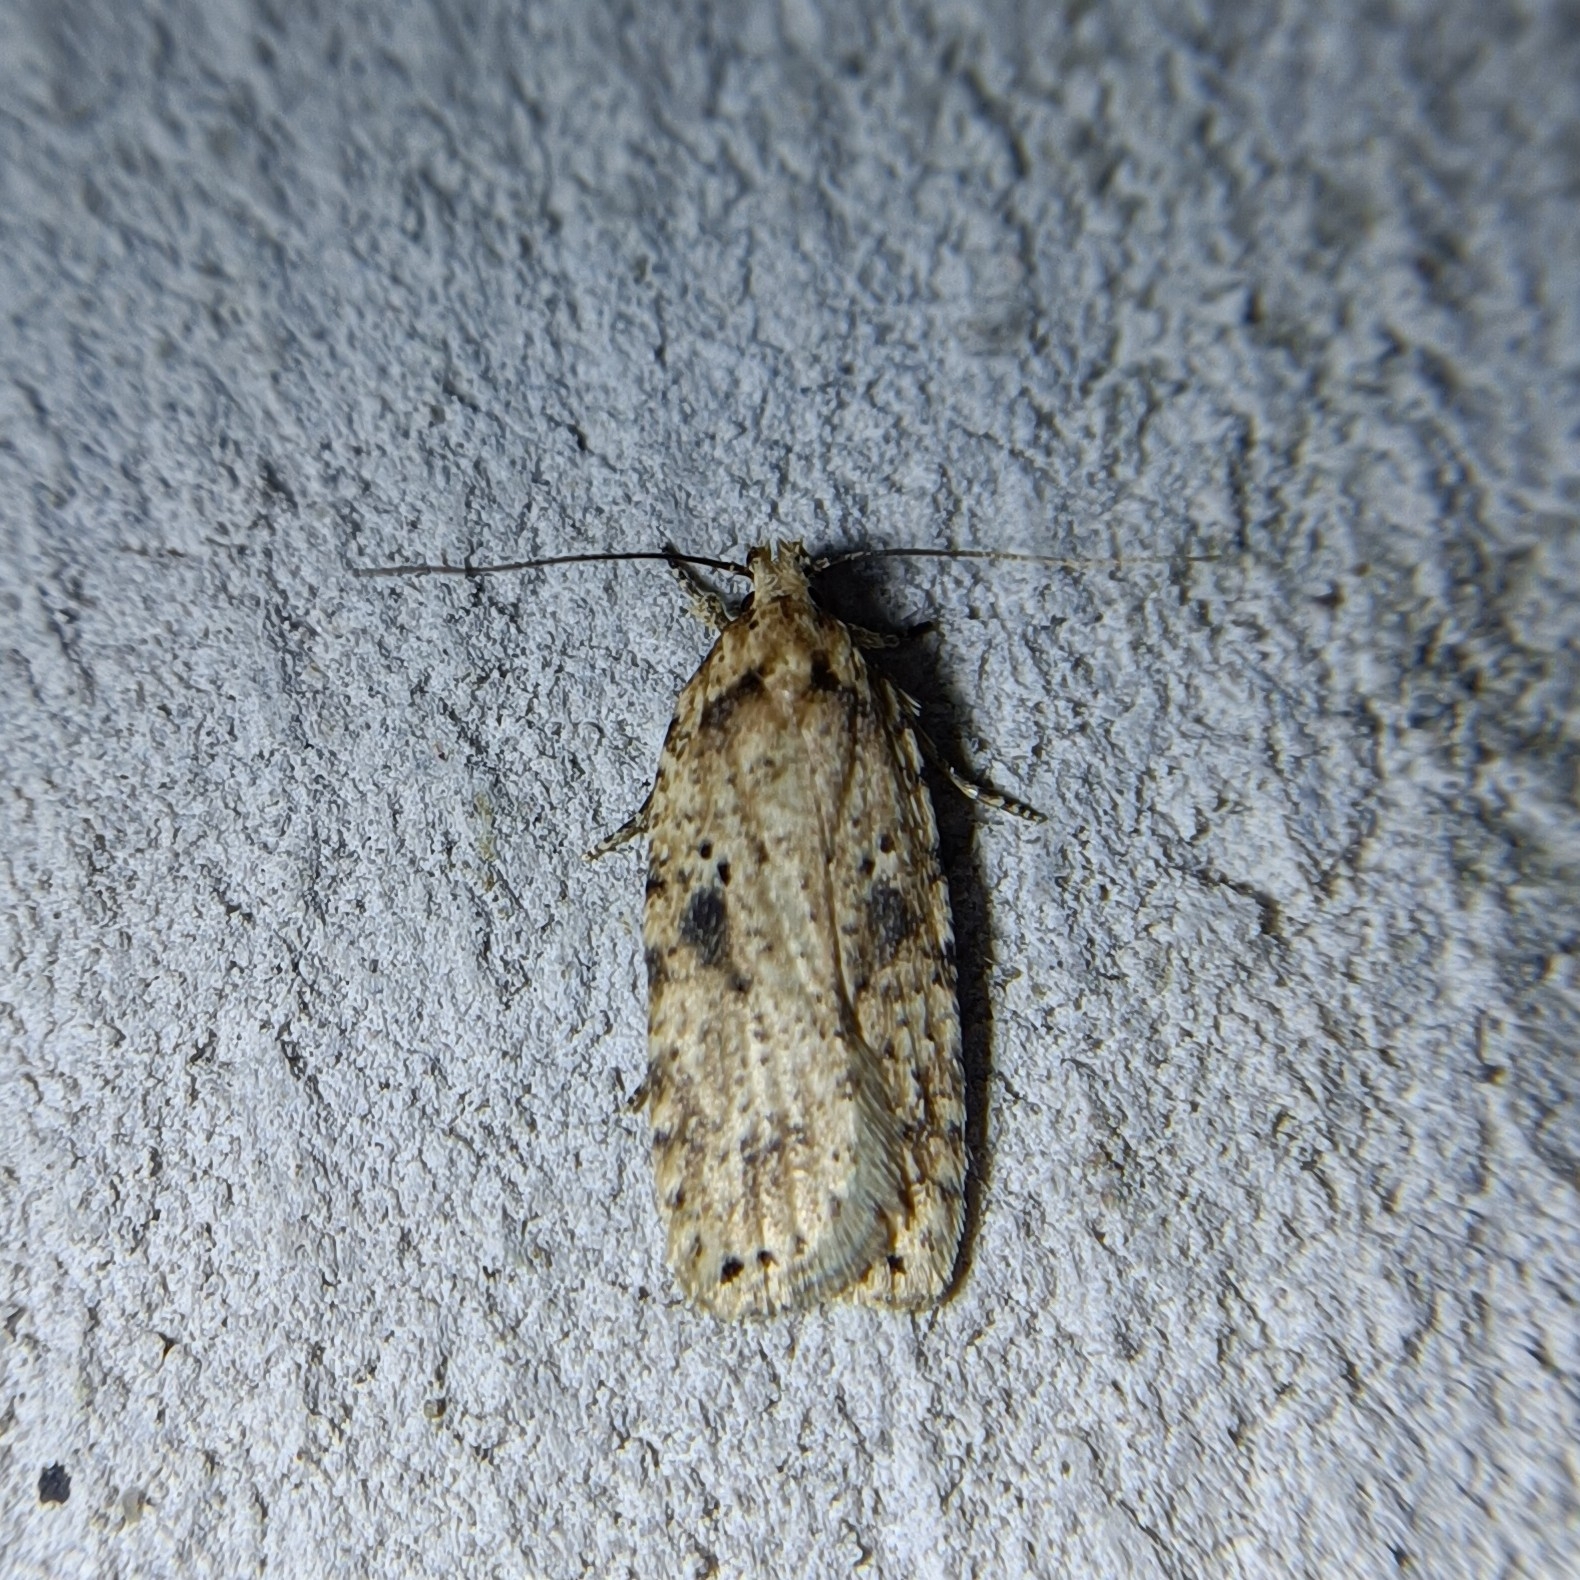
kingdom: Animalia
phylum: Arthropoda
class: Insecta
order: Lepidoptera
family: Depressariidae
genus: Agonopterix
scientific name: Agonopterix arenella
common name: Brindled flat-body
